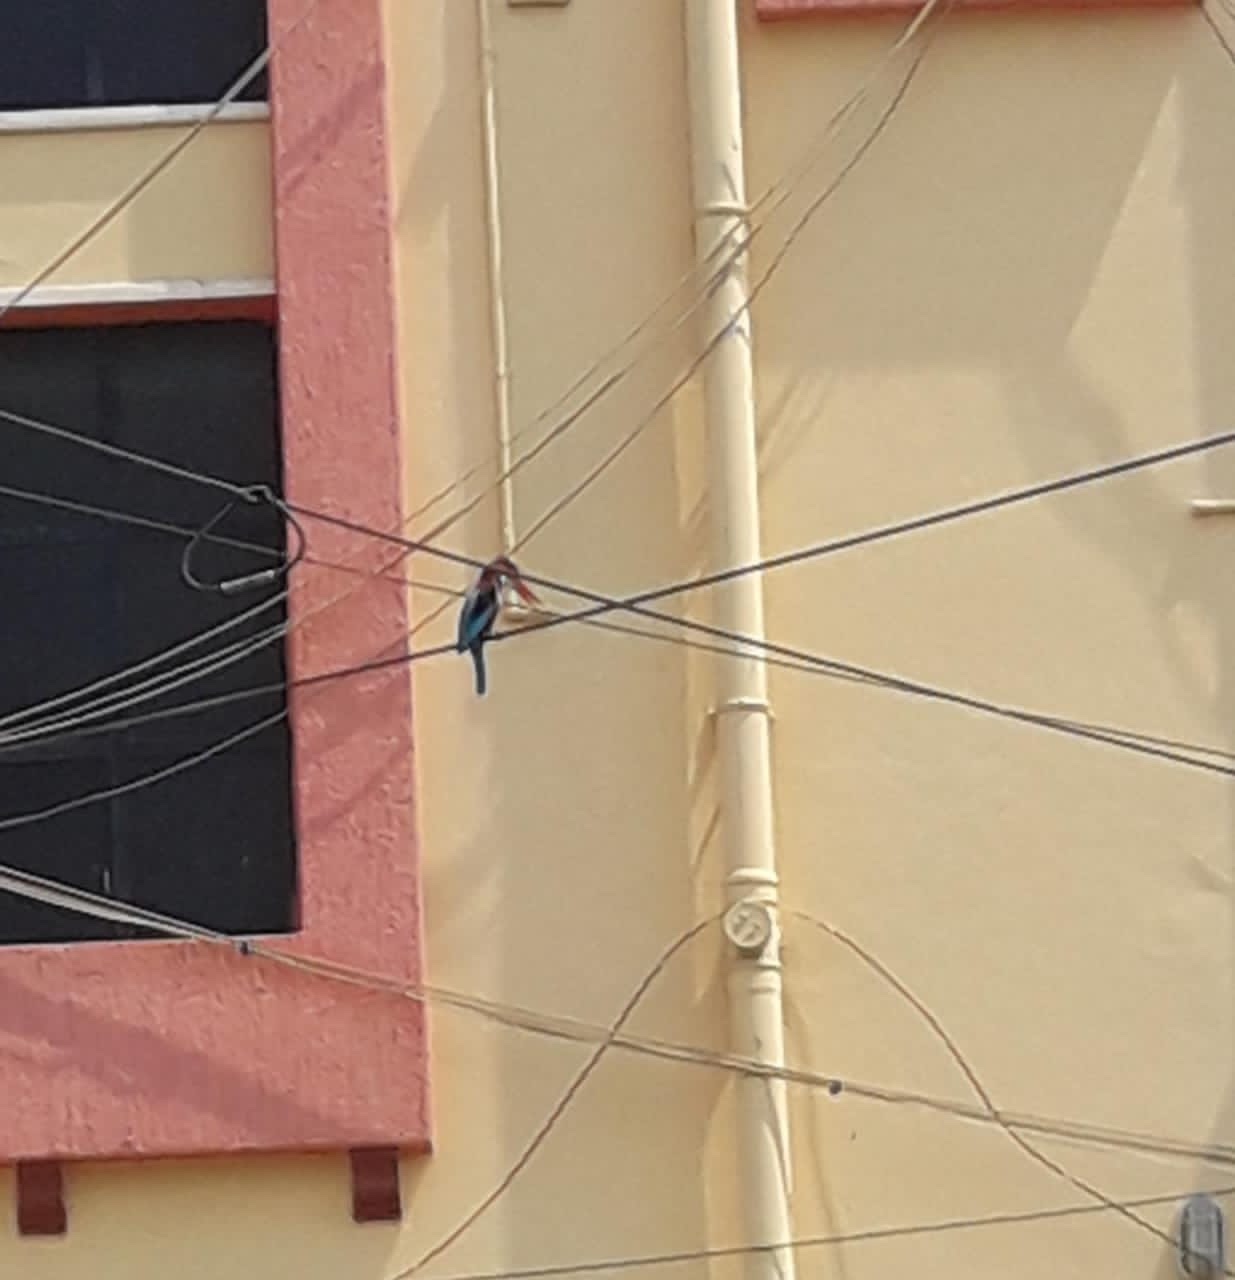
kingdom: Animalia
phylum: Chordata
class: Aves
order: Coraciiformes
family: Alcedinidae
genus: Halcyon
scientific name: Halcyon smyrnensis
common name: White-throated kingfisher
